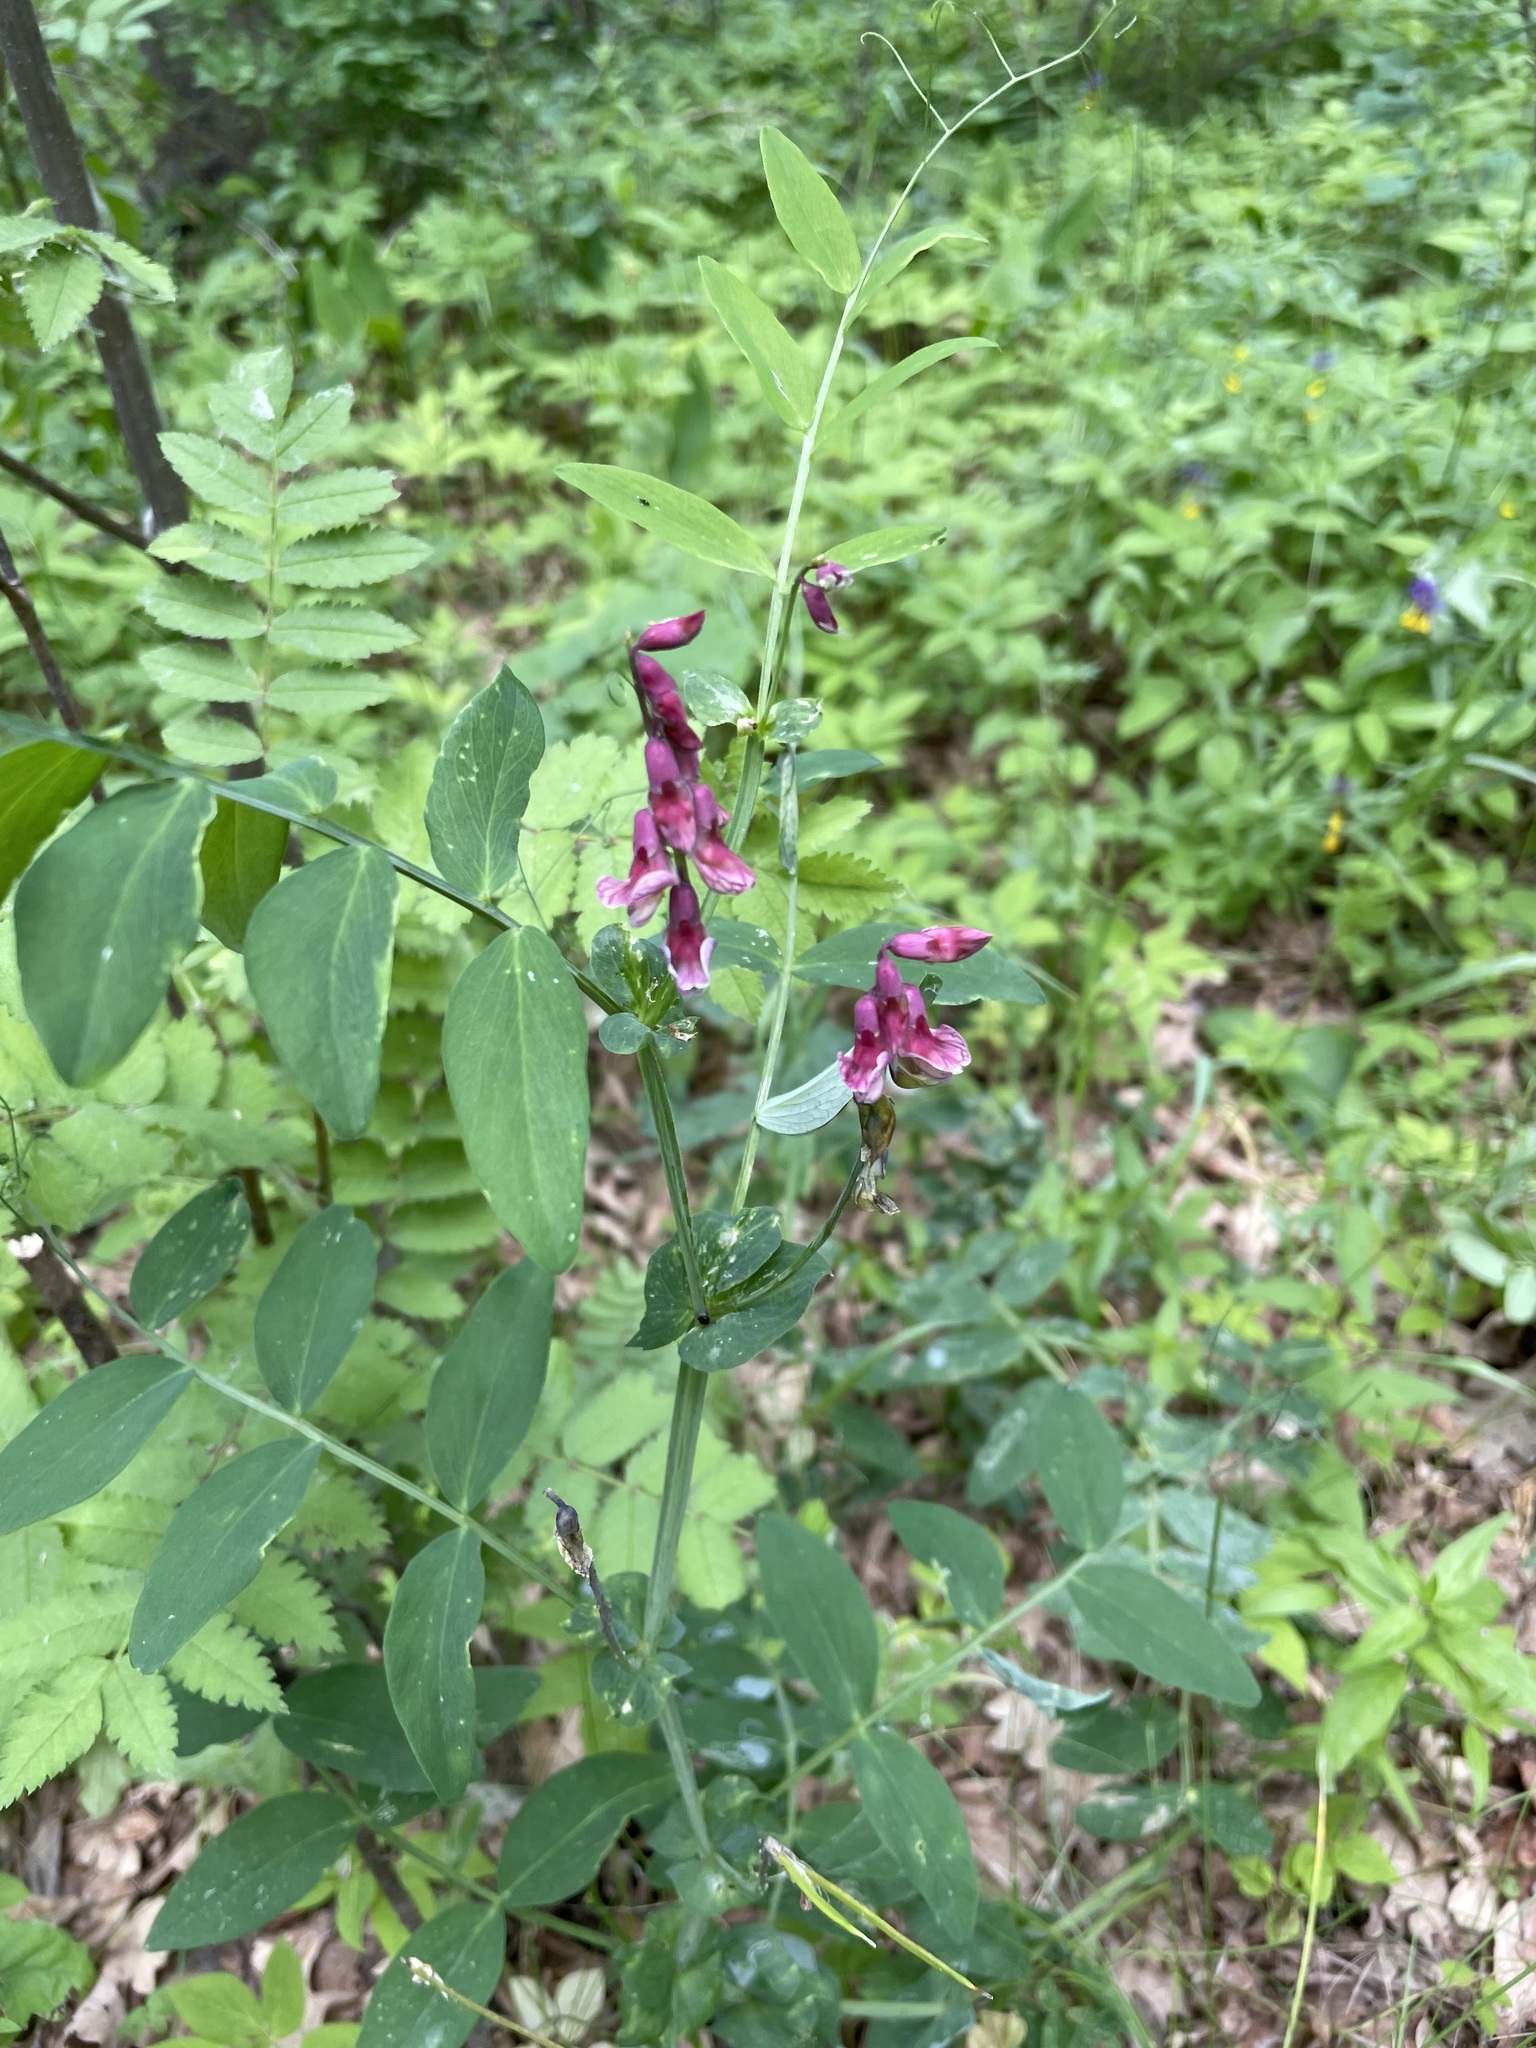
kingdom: Plantae
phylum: Tracheophyta
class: Magnoliopsida
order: Fabales
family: Fabaceae
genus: Lathyrus
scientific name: Lathyrus pisiformis
